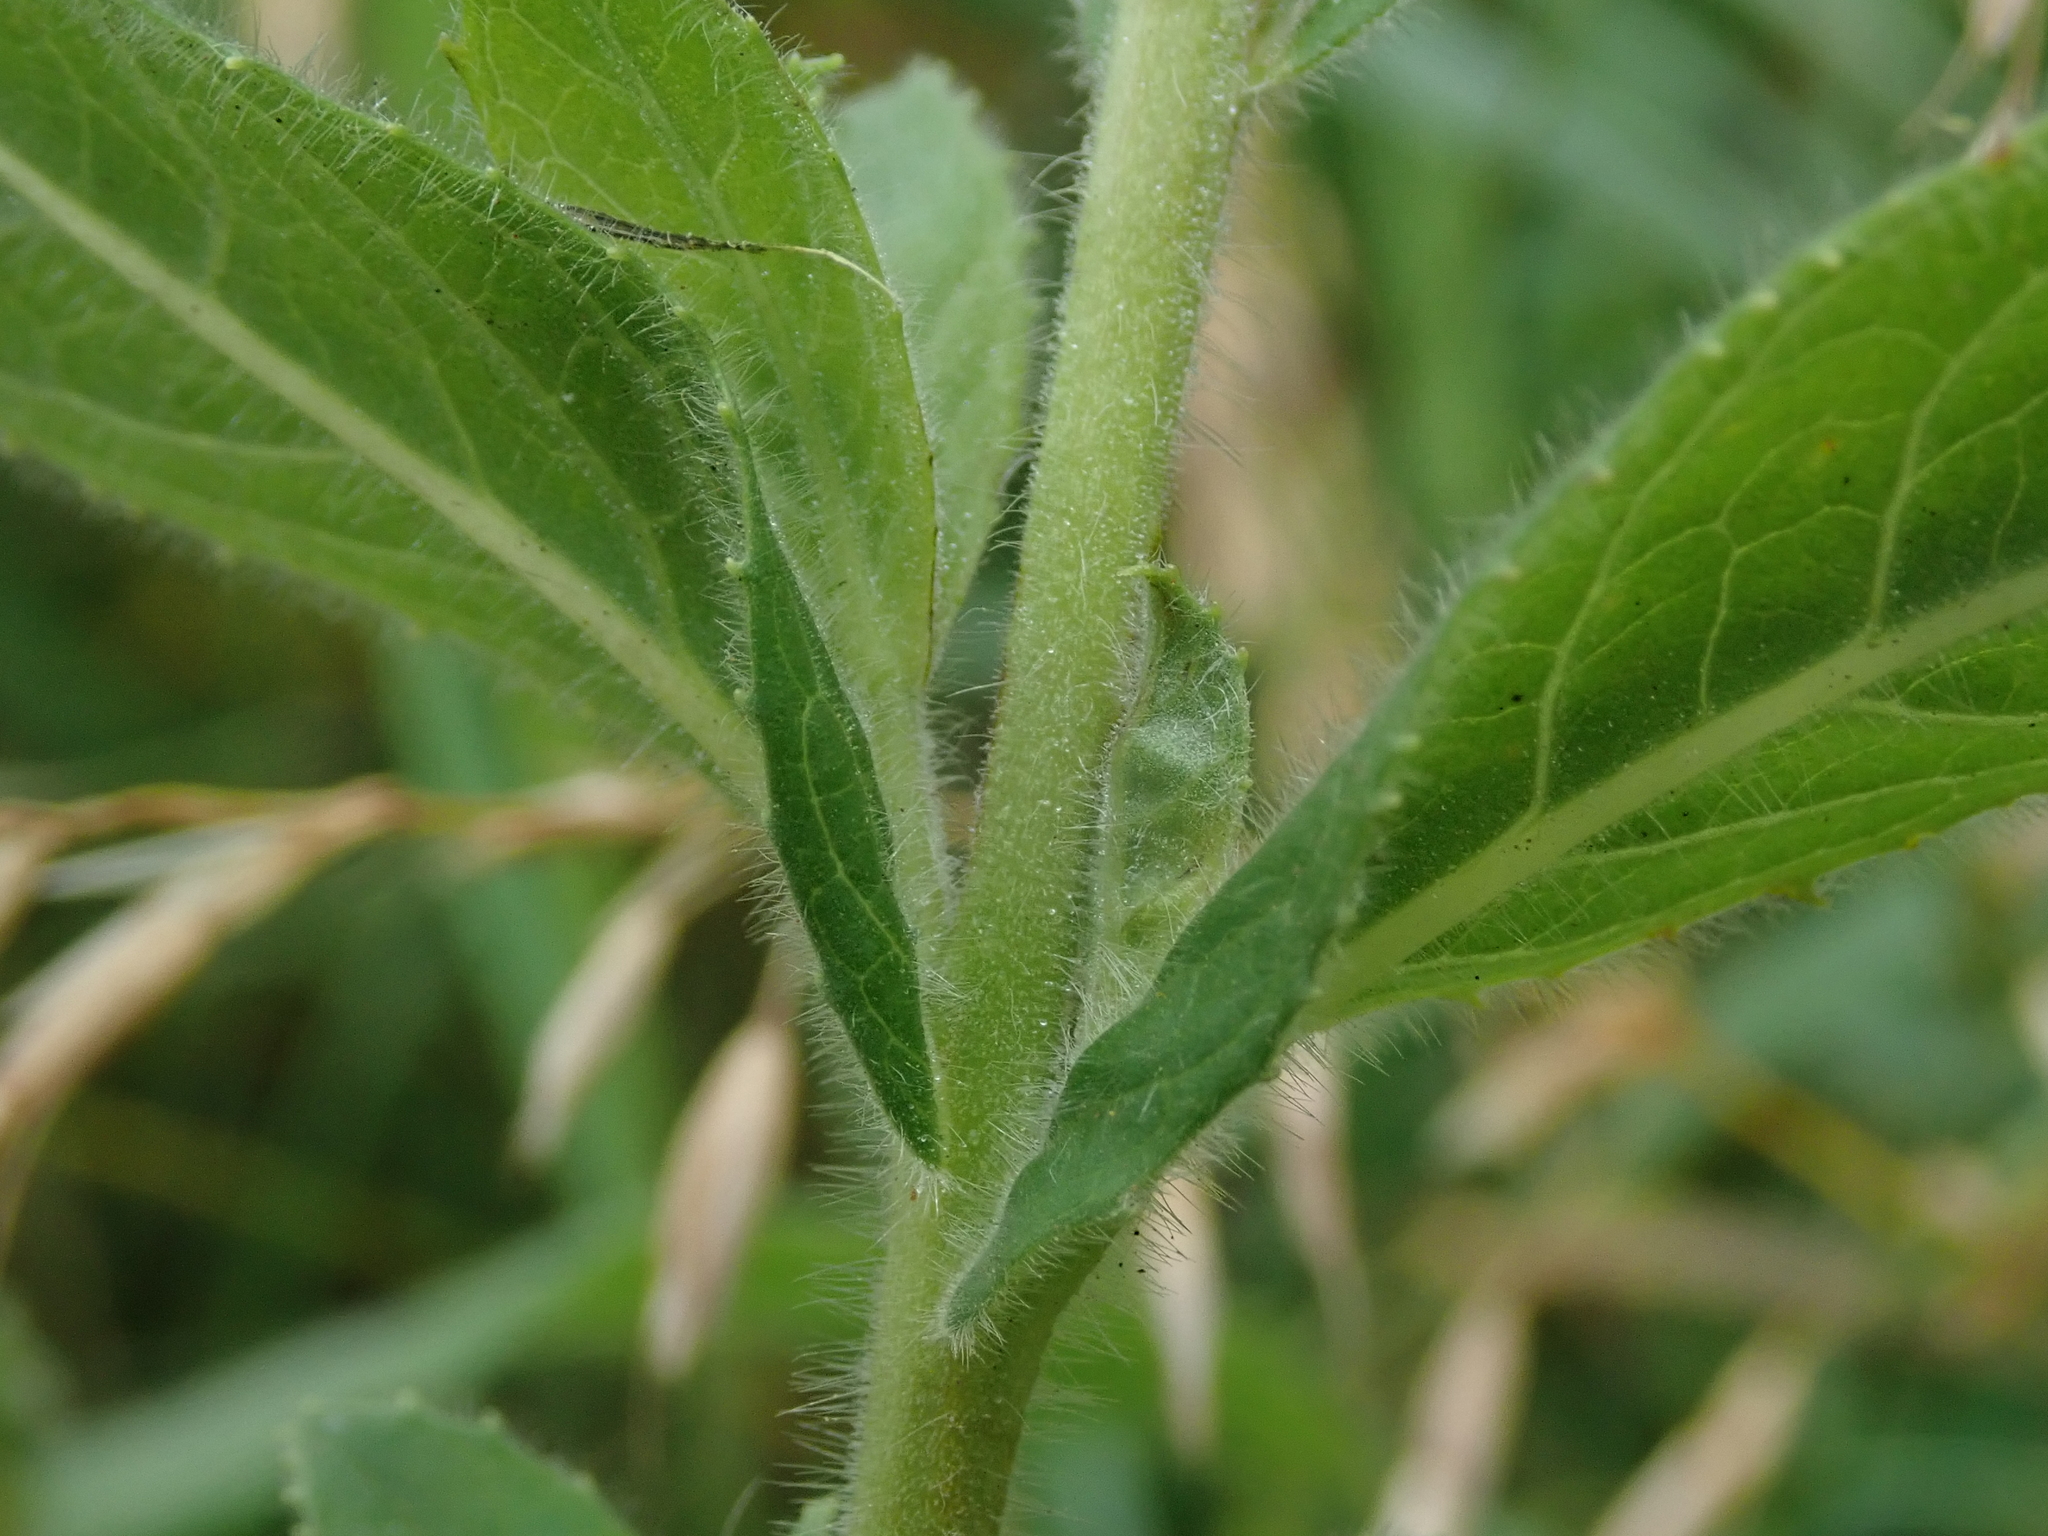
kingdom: Plantae
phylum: Tracheophyta
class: Magnoliopsida
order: Myrtales
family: Onagraceae
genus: Epilobium
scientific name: Epilobium hirsutum
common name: Great willowherb
